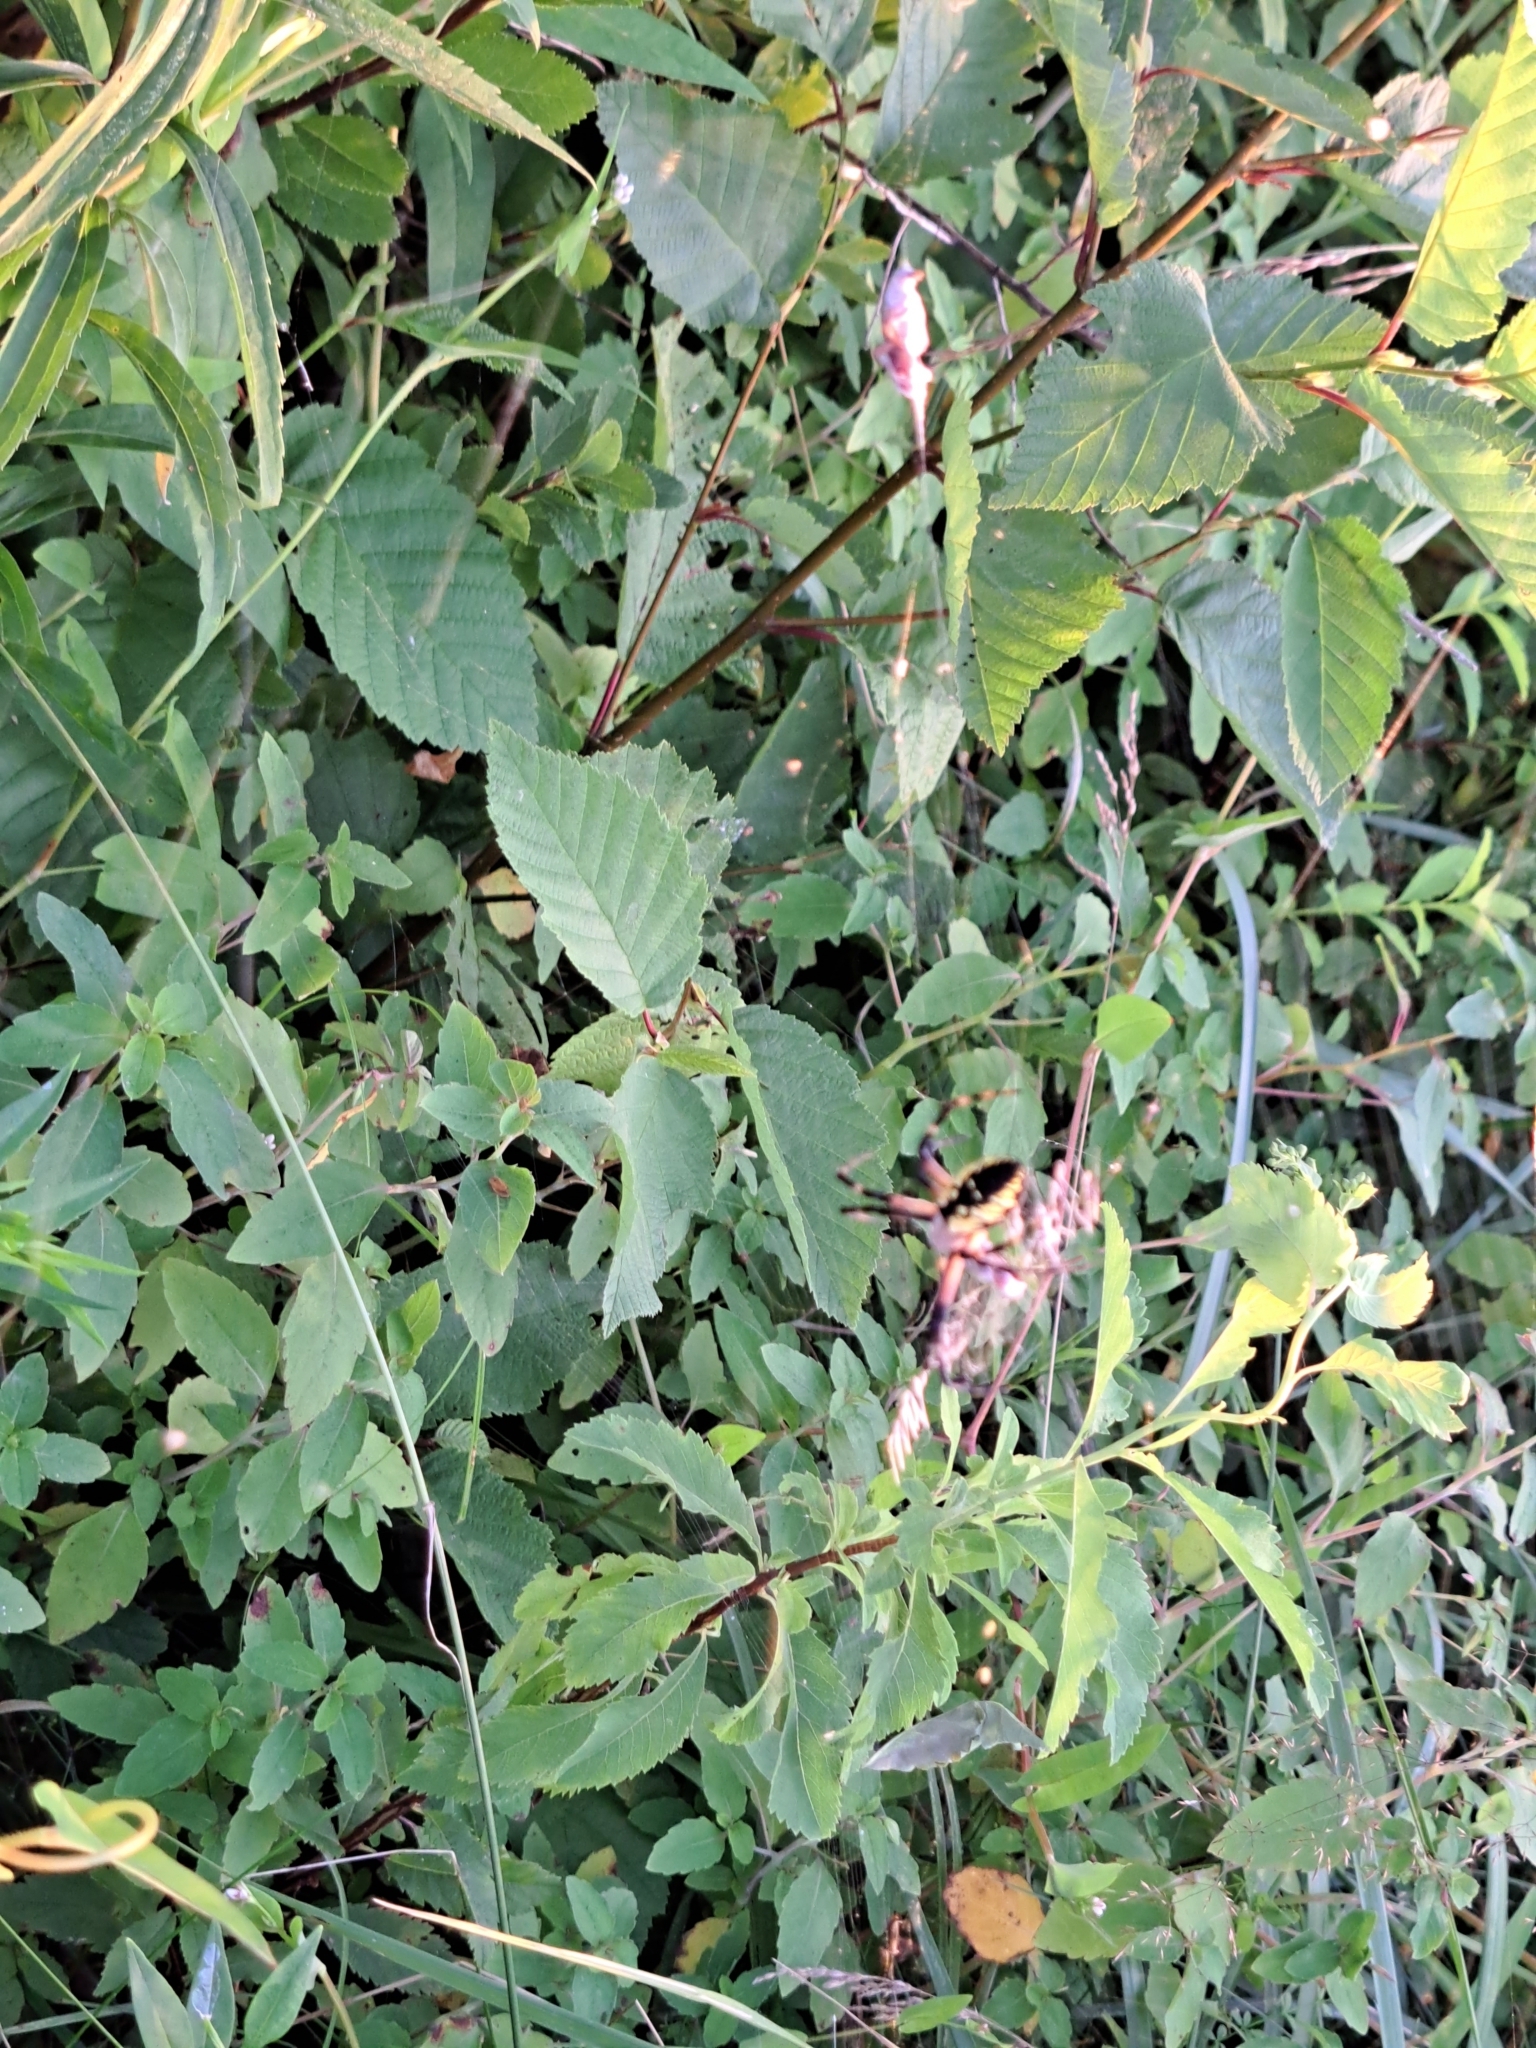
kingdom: Animalia
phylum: Arthropoda
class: Arachnida
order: Araneae
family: Araneidae
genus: Argiope
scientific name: Argiope aurantia
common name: Orb weavers
